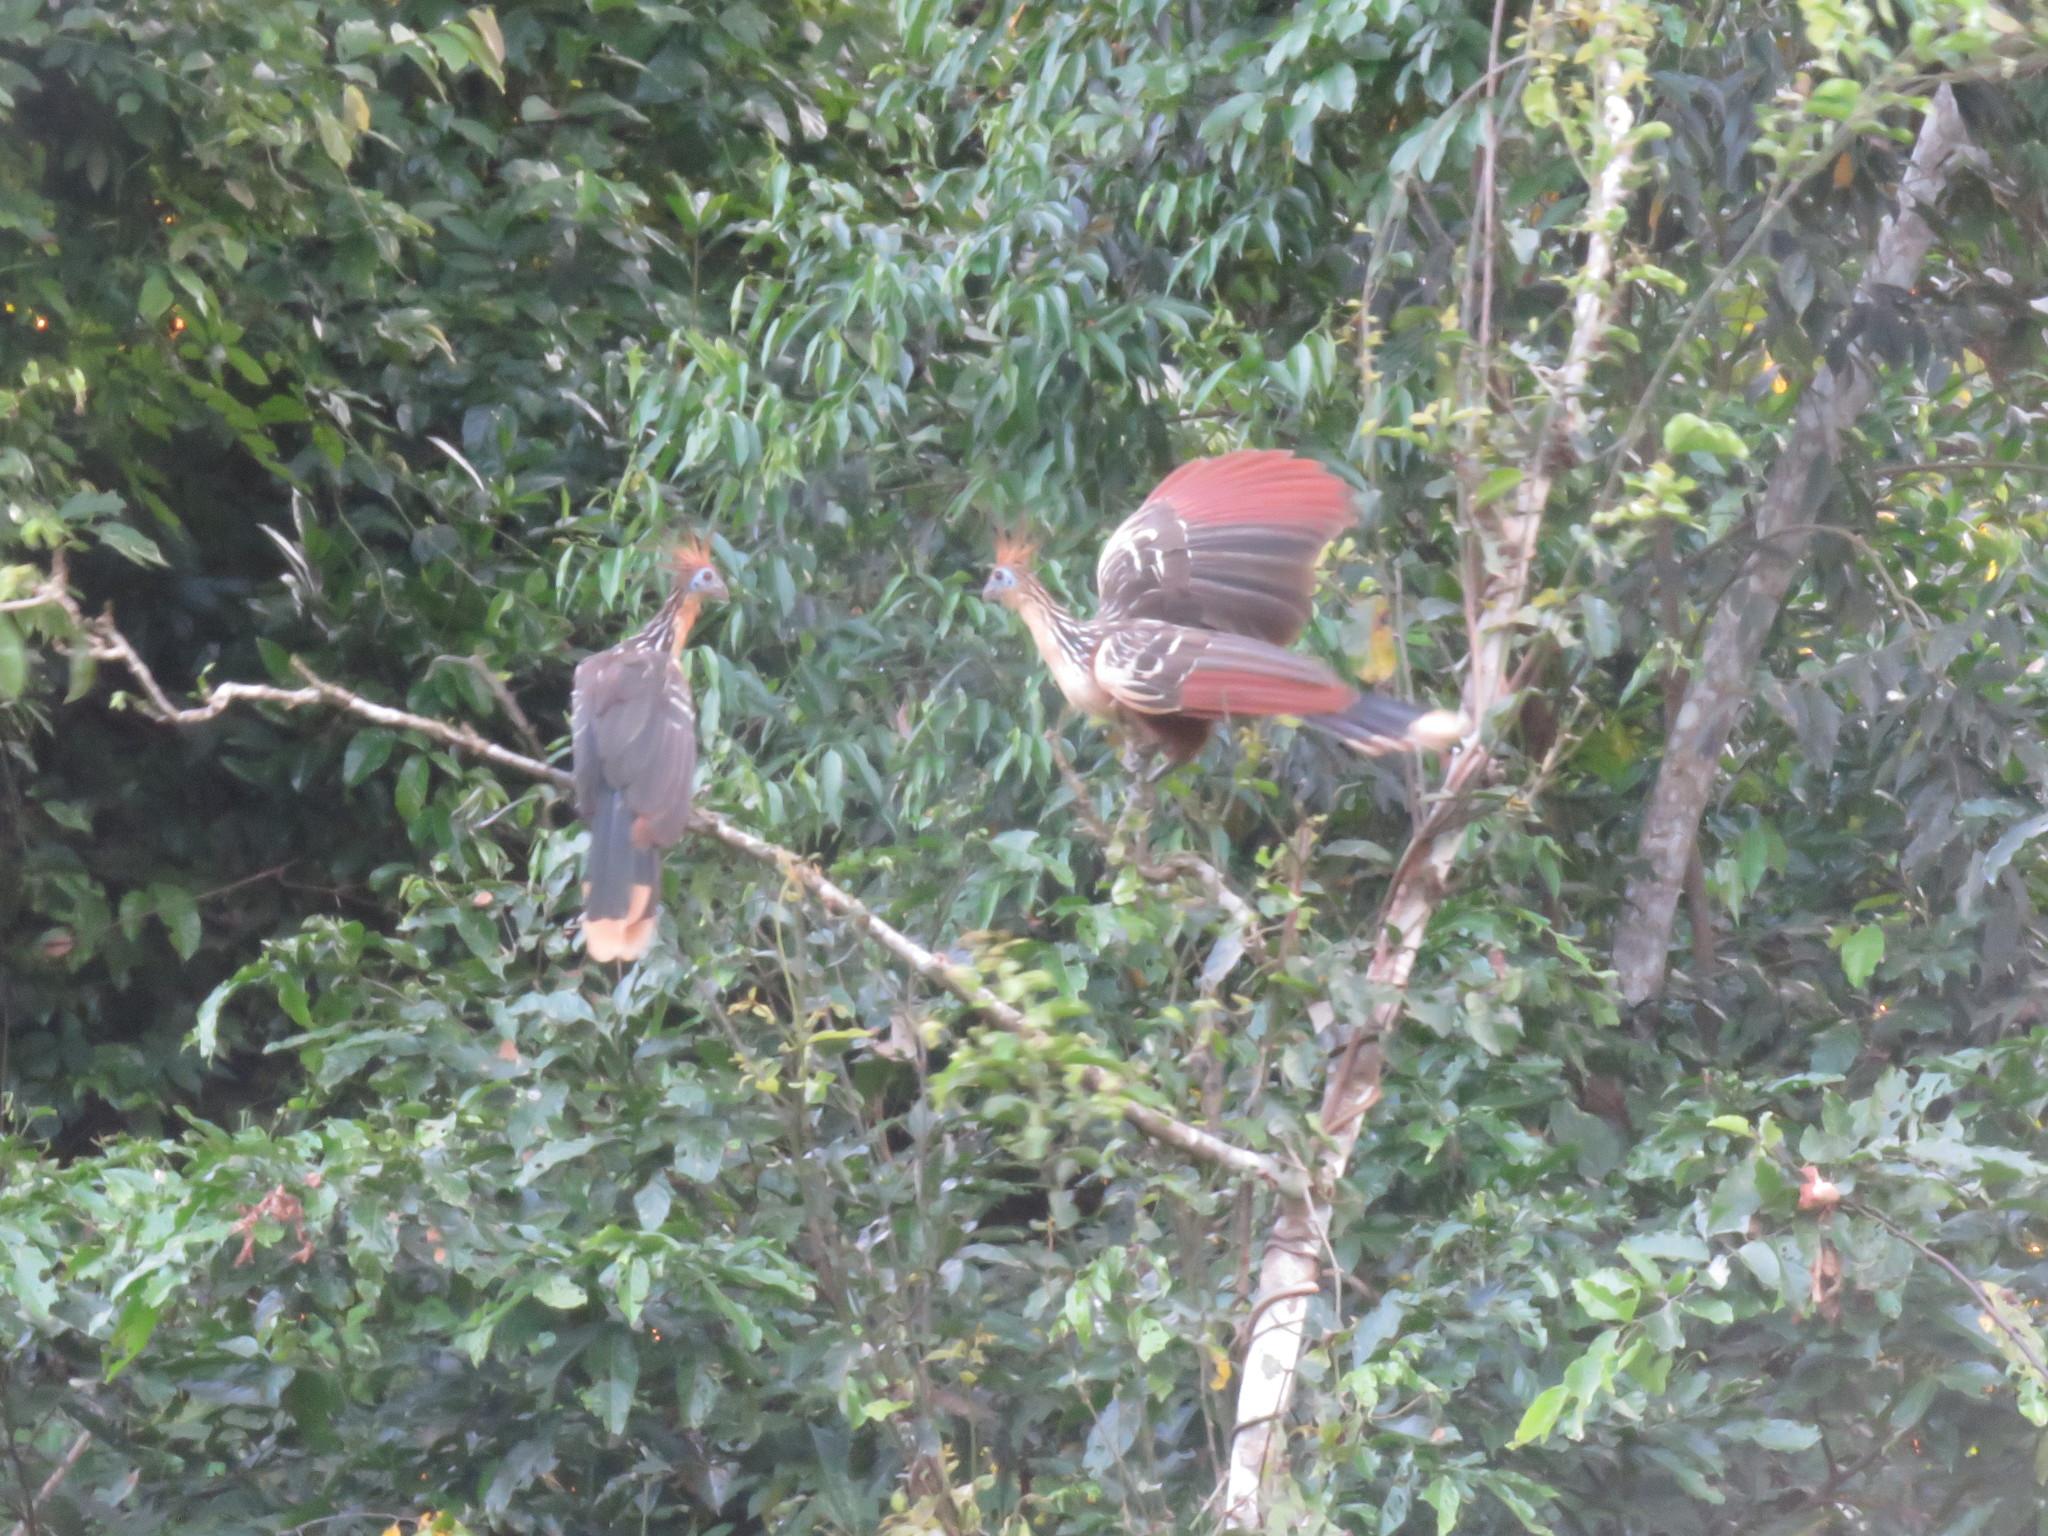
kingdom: Animalia
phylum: Chordata
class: Aves
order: Opisthocomiformes
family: Opisthocomidae
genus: Opisthocomus
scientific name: Opisthocomus hoazin
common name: Hoatzin
